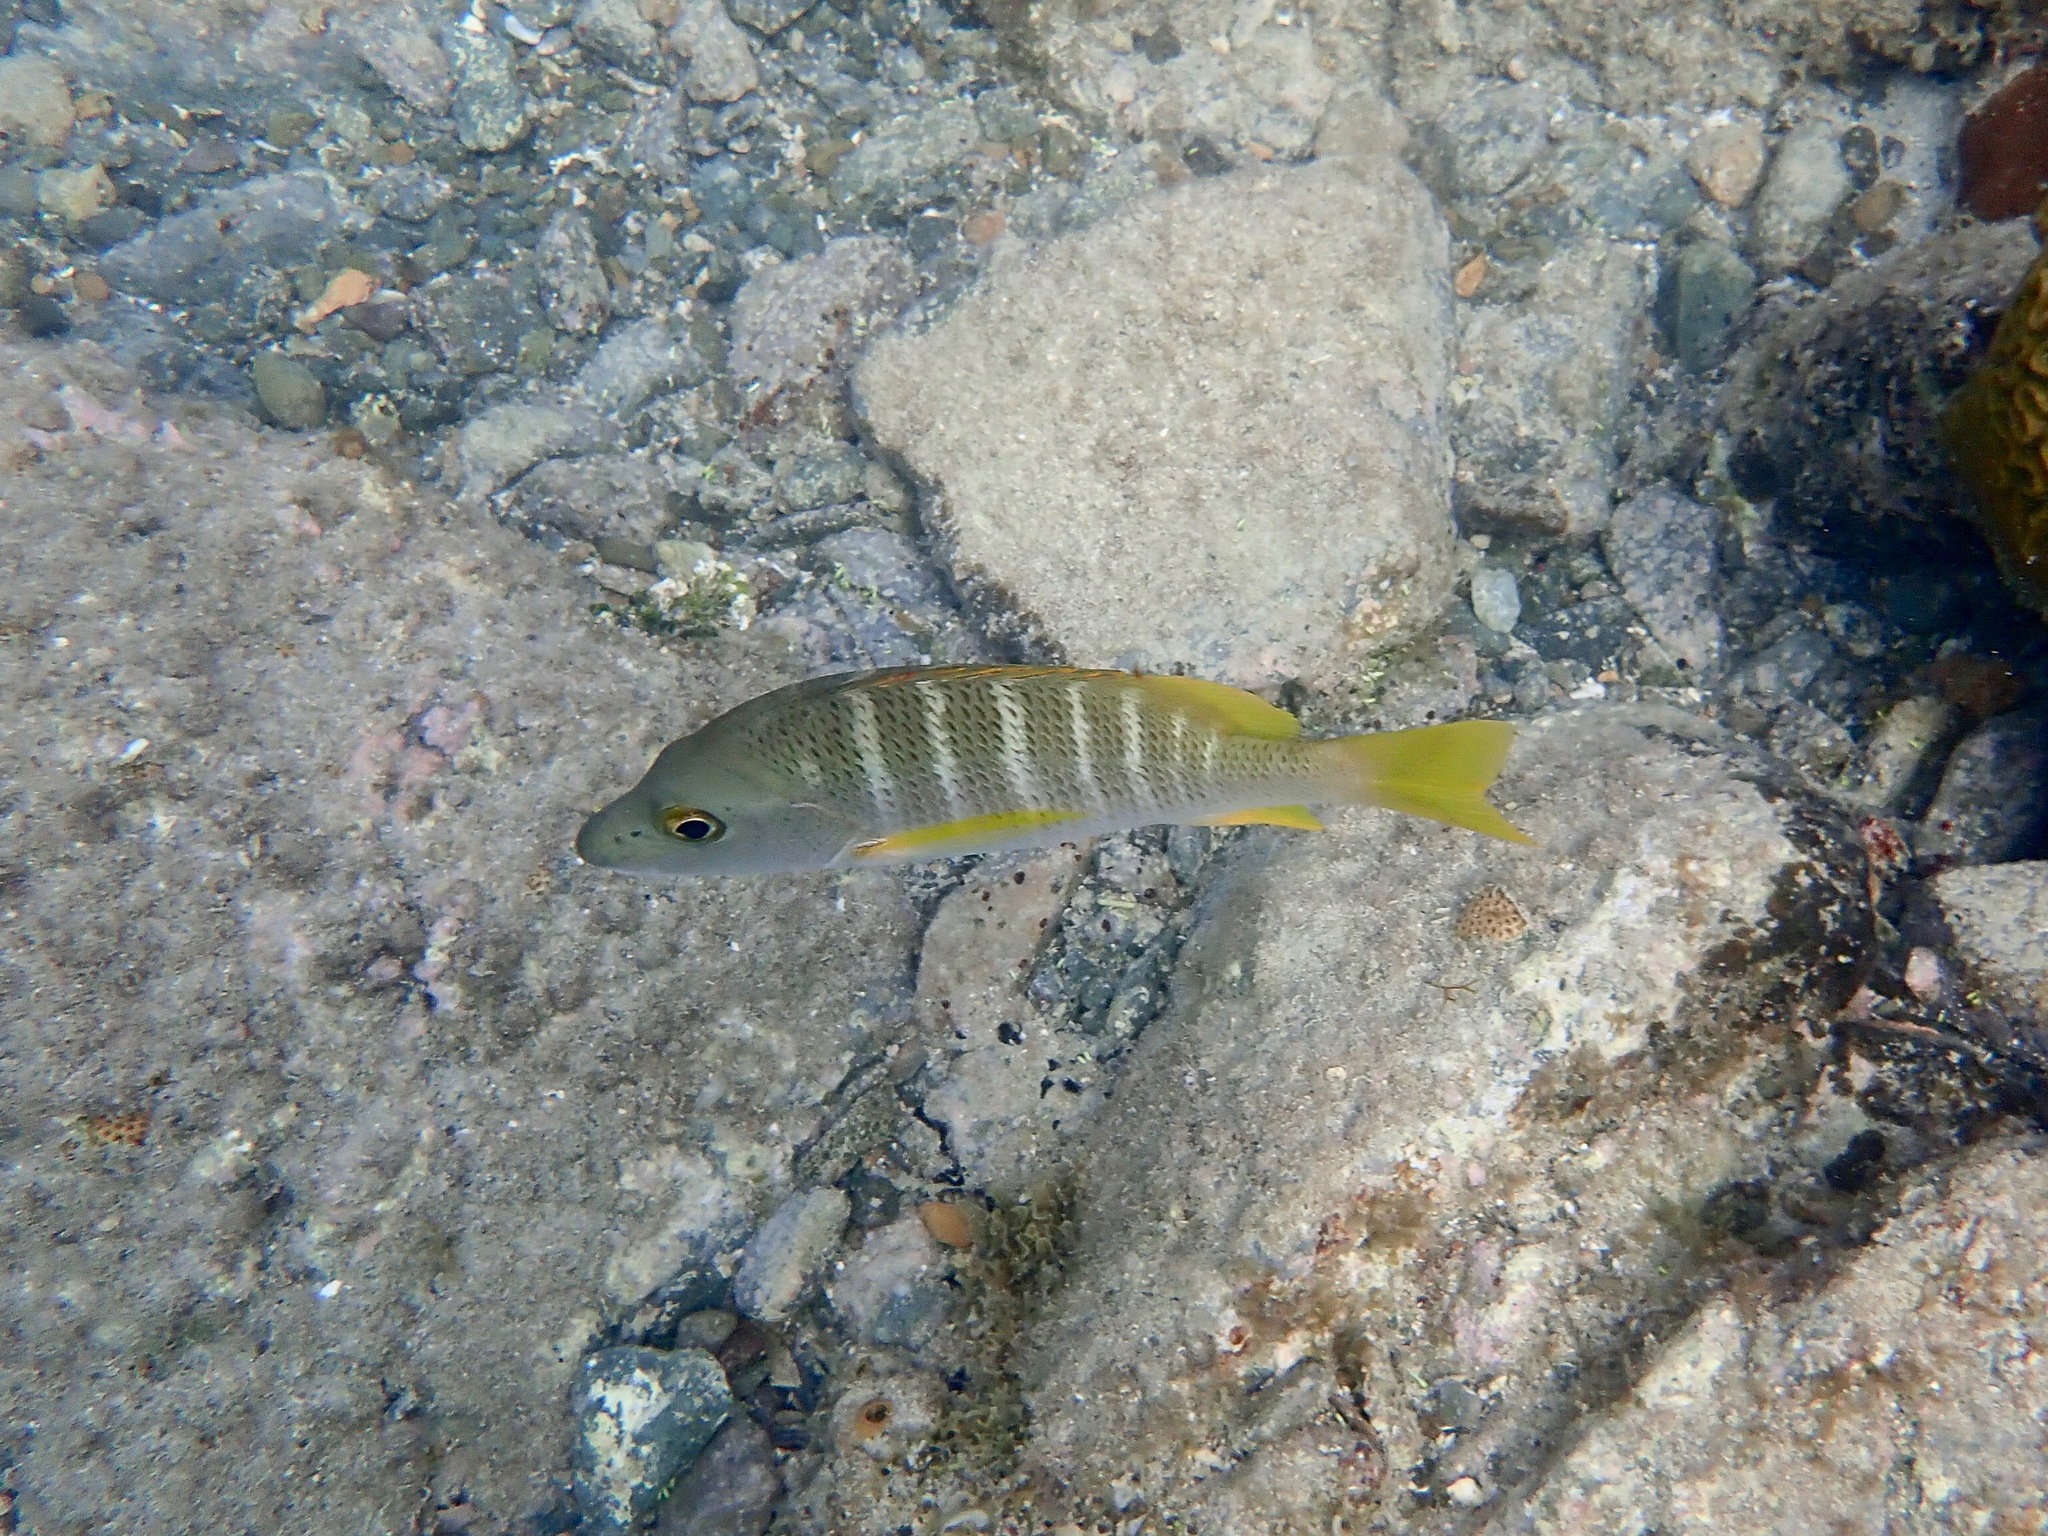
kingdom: Animalia
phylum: Chordata
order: Perciformes
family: Lutjanidae
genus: Lutjanus
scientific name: Lutjanus apodus
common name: Schoolmaster
